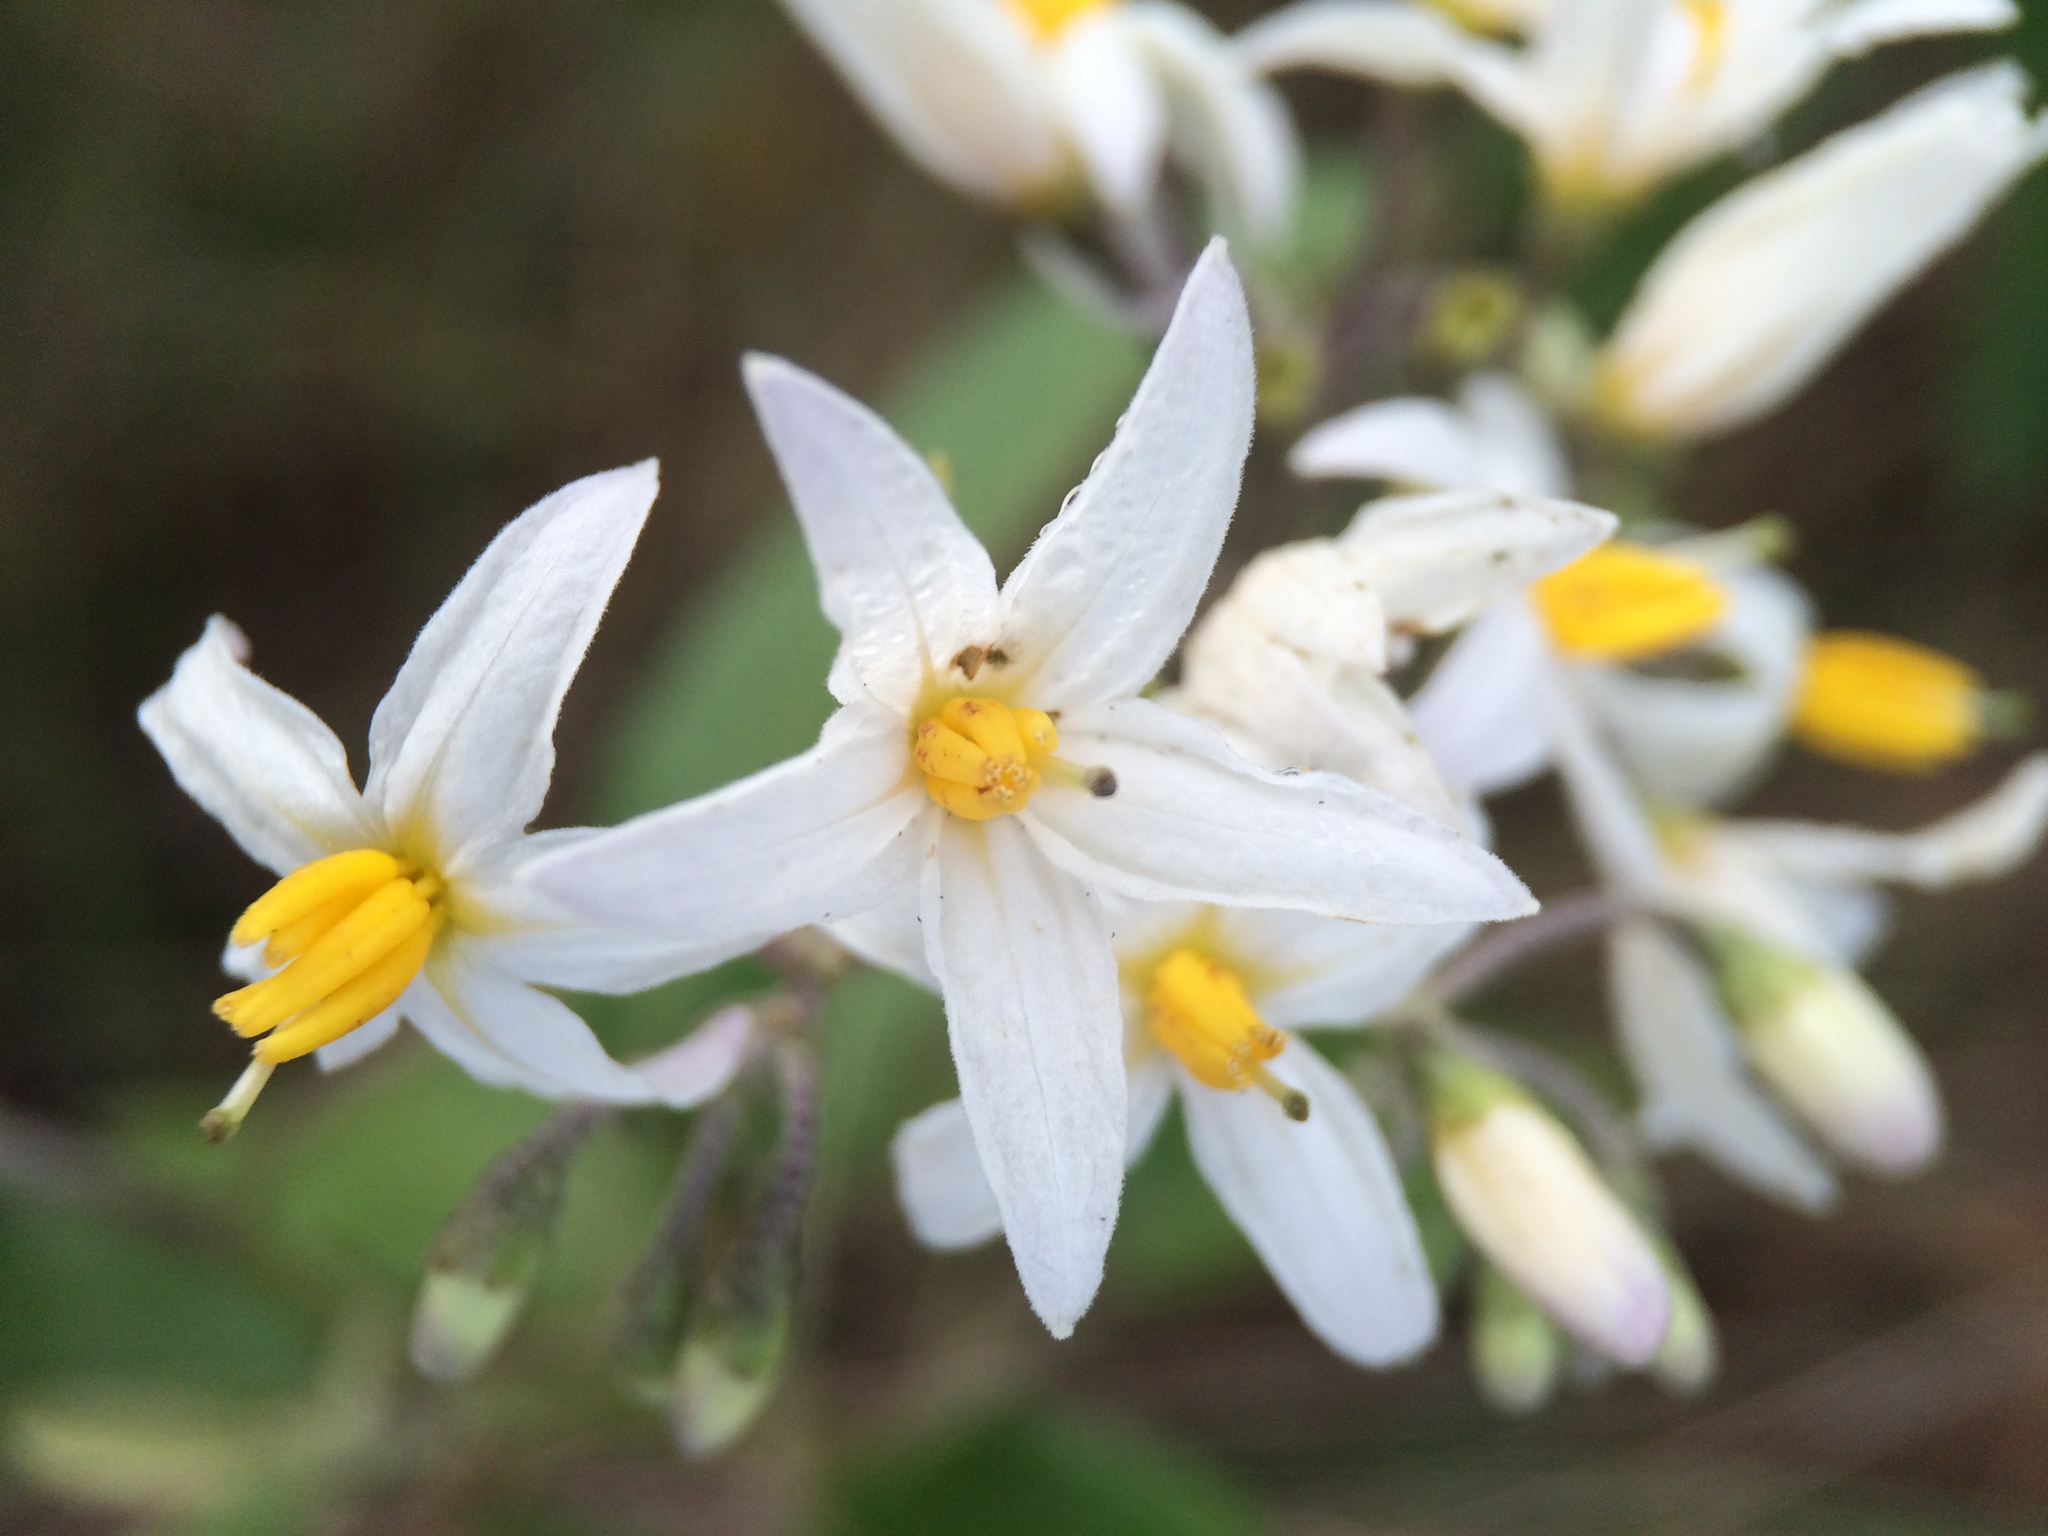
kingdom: Plantae
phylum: Tracheophyta
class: Magnoliopsida
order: Solanales
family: Solanaceae
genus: Solanum
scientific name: Solanum donianum
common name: Mullein nightshade
